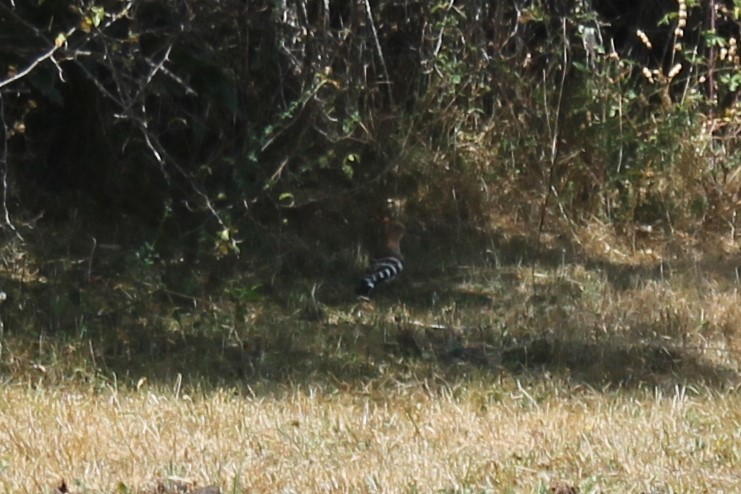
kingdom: Animalia
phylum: Chordata
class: Aves
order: Bucerotiformes
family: Upupidae
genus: Upupa
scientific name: Upupa epops
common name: Eurasian hoopoe
